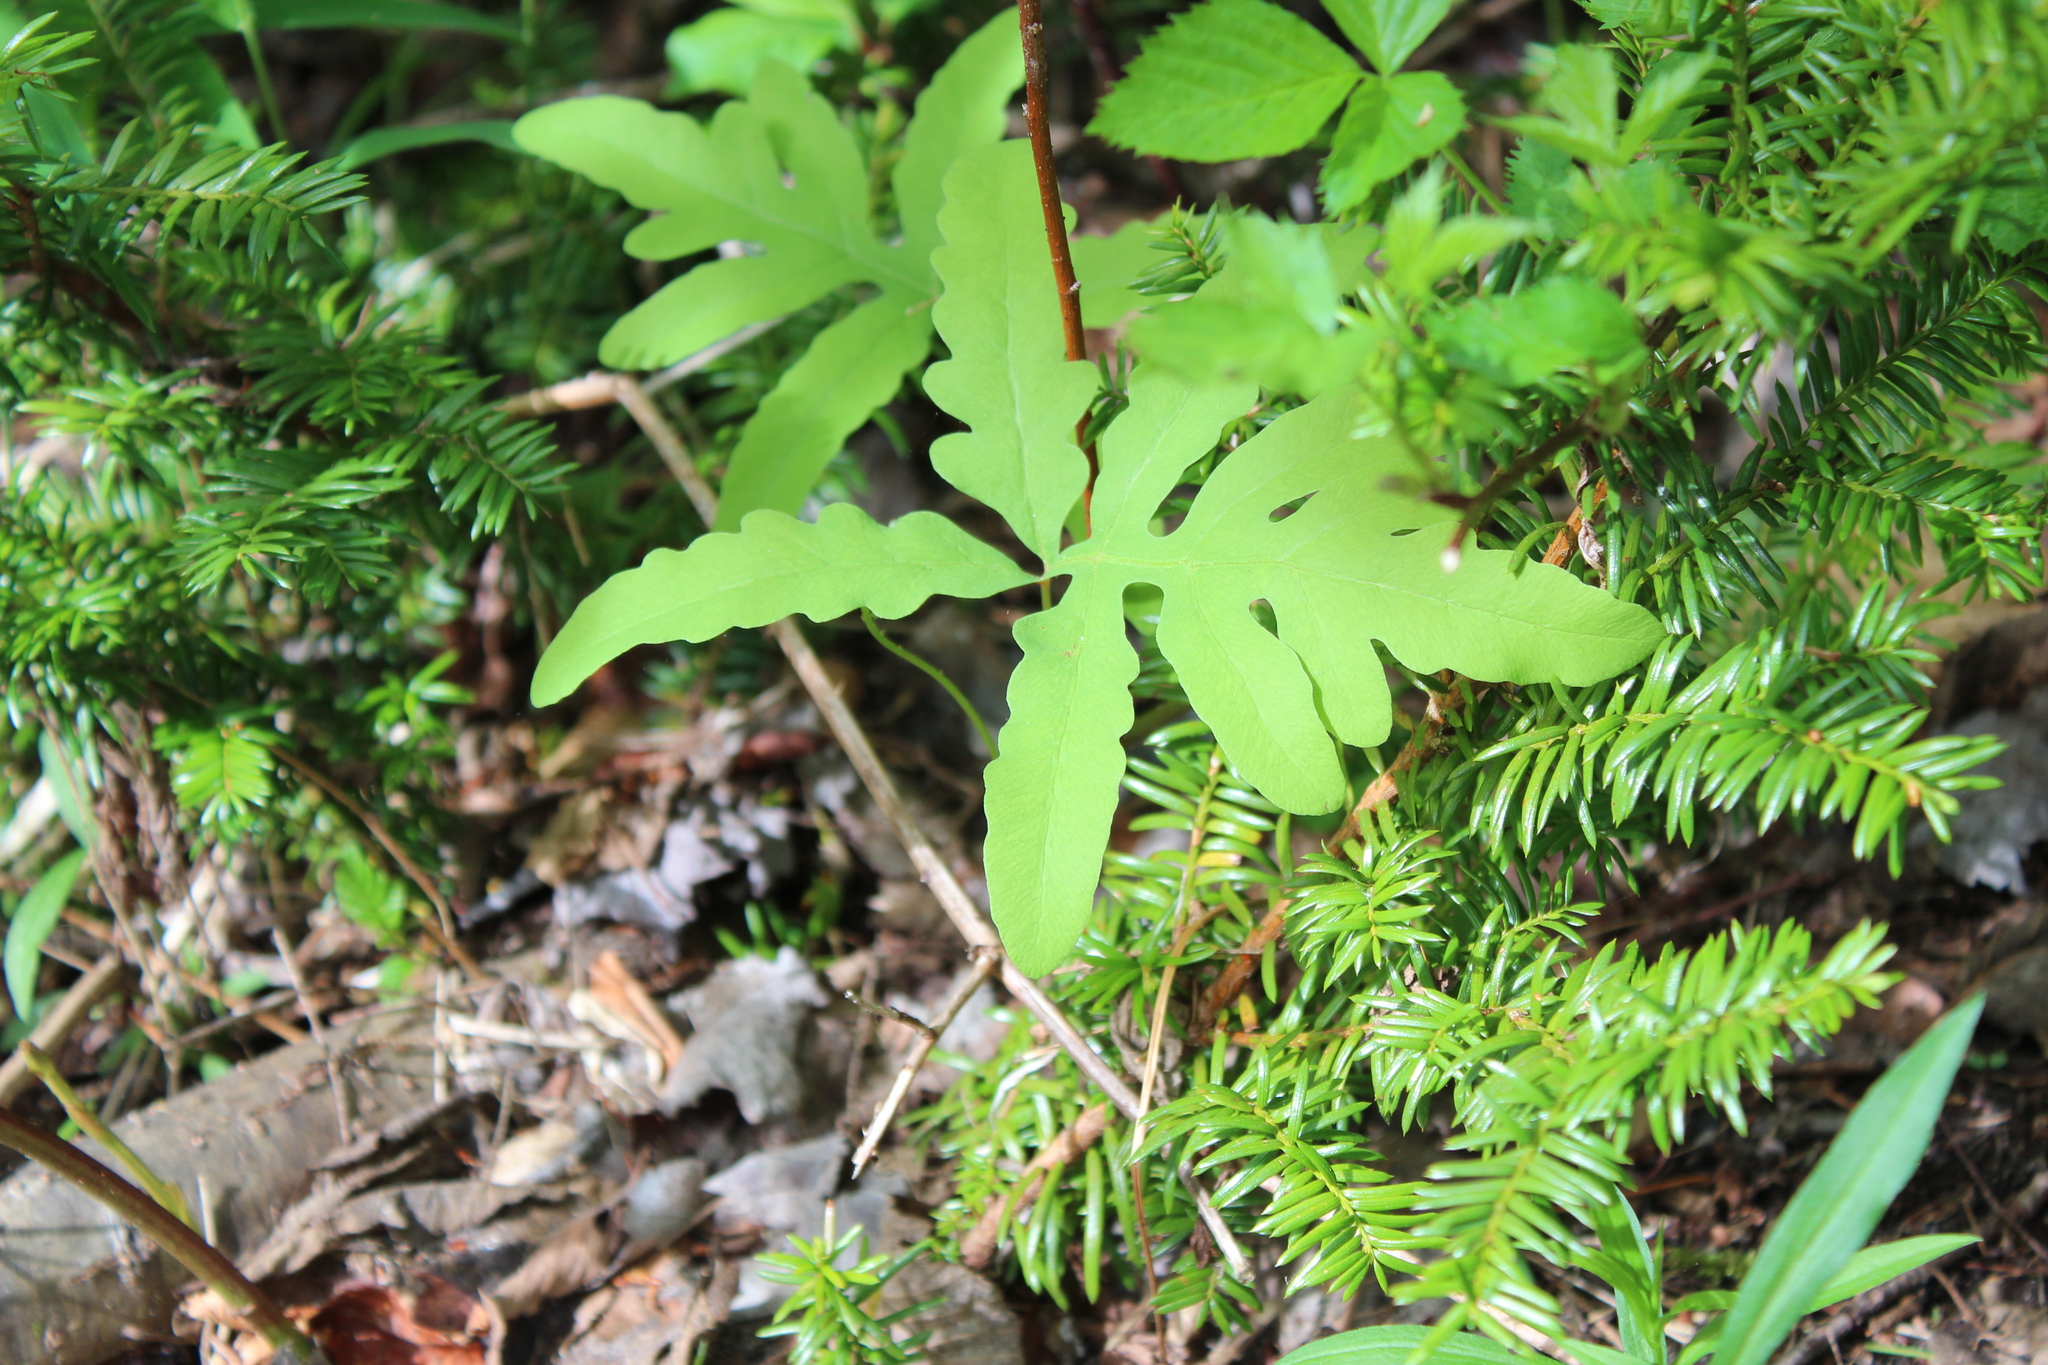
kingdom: Plantae
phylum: Tracheophyta
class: Polypodiopsida
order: Polypodiales
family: Onocleaceae
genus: Onoclea
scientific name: Onoclea sensibilis
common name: Sensitive fern
